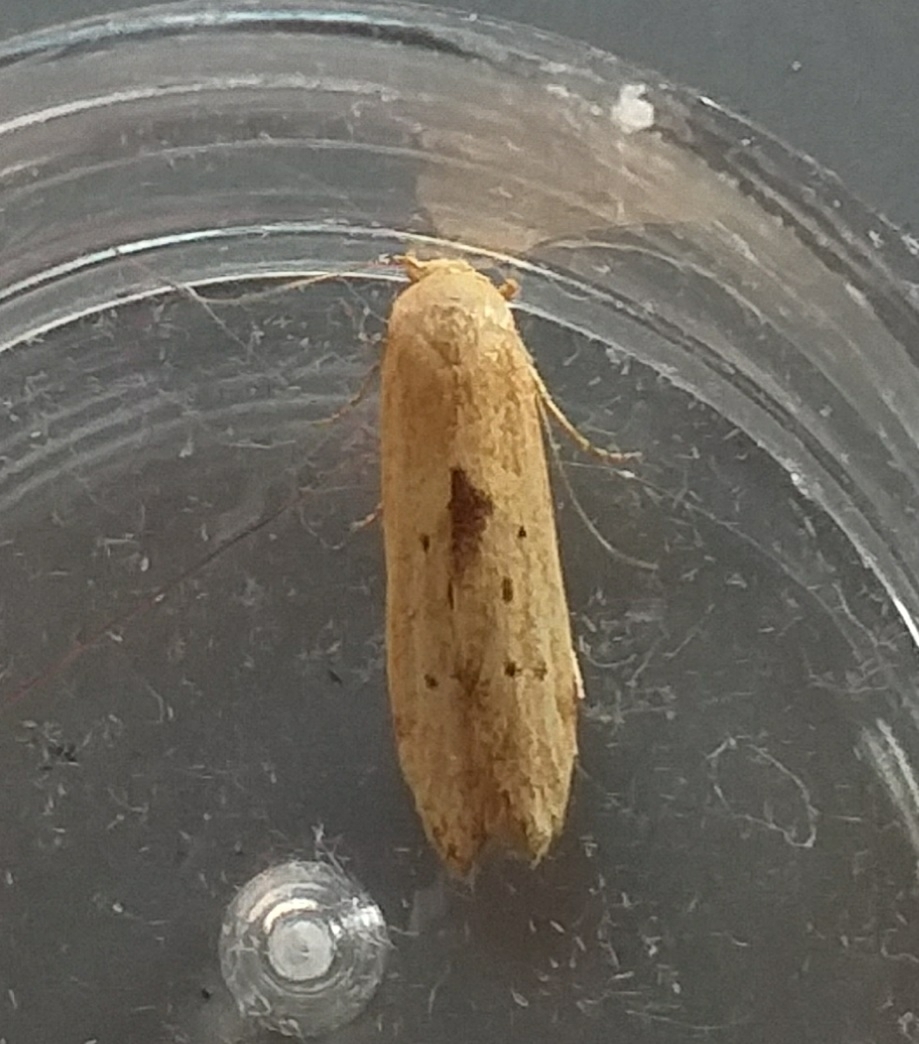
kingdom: Animalia
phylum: Arthropoda
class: Insecta
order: Lepidoptera
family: Blastobasidae
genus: Blastobasis
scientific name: Blastobasis lacticolella
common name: London dowd
